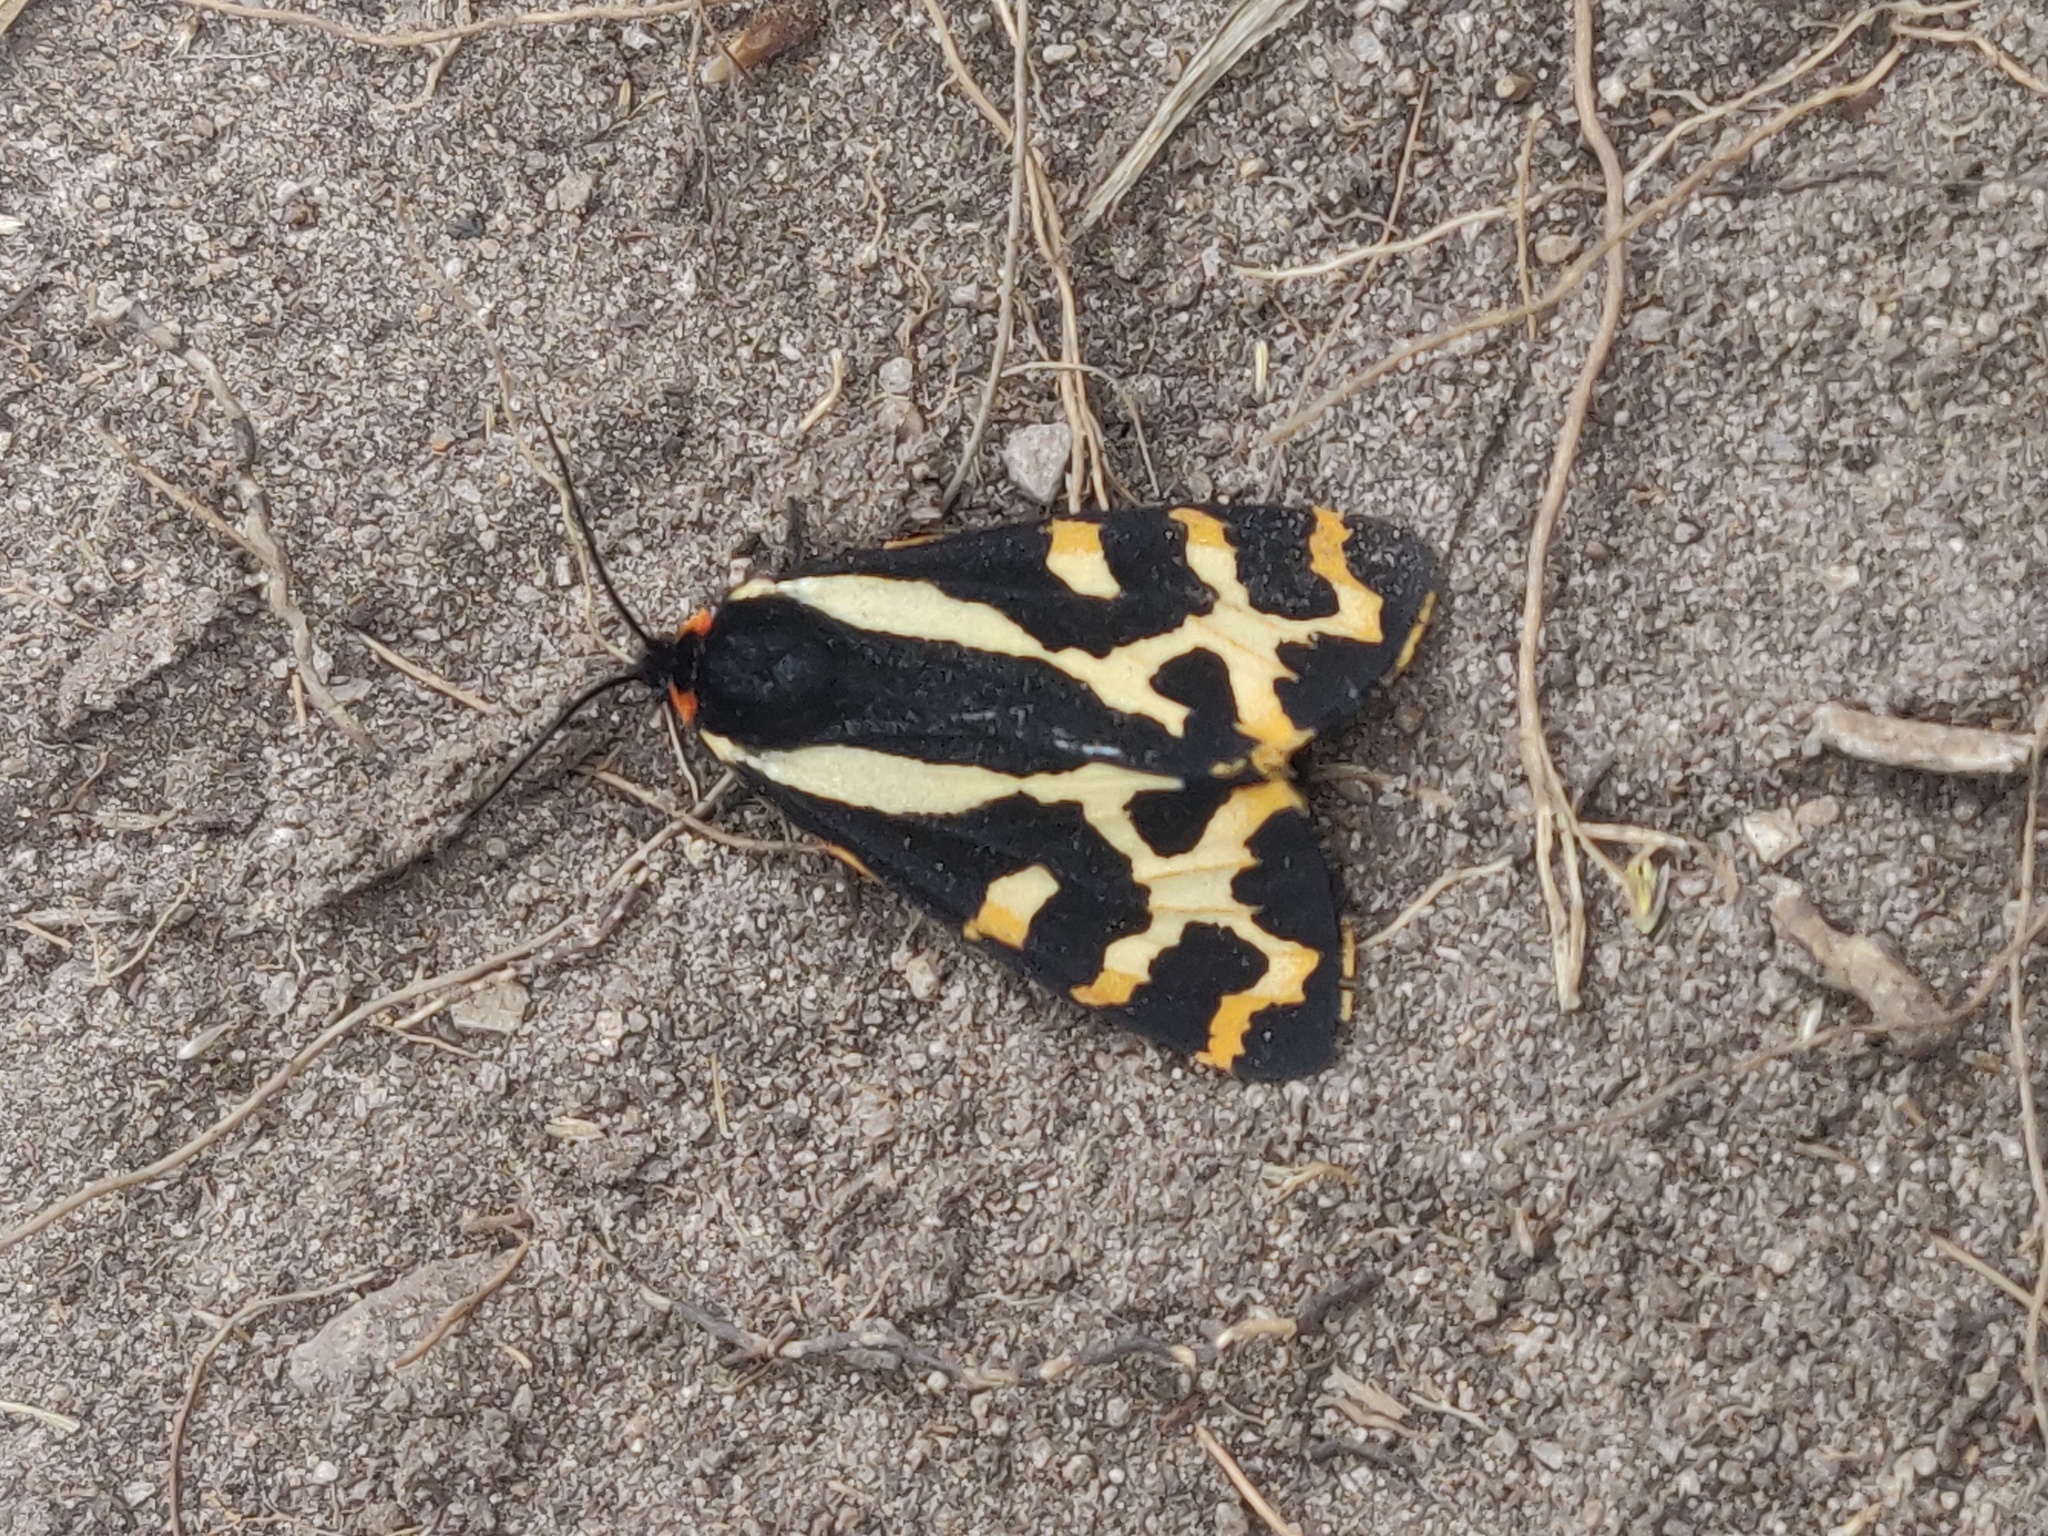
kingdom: Animalia
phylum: Arthropoda
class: Insecta
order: Lepidoptera
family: Erebidae
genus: Parasemia
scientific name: Parasemia plantaginis
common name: Wood tiger
